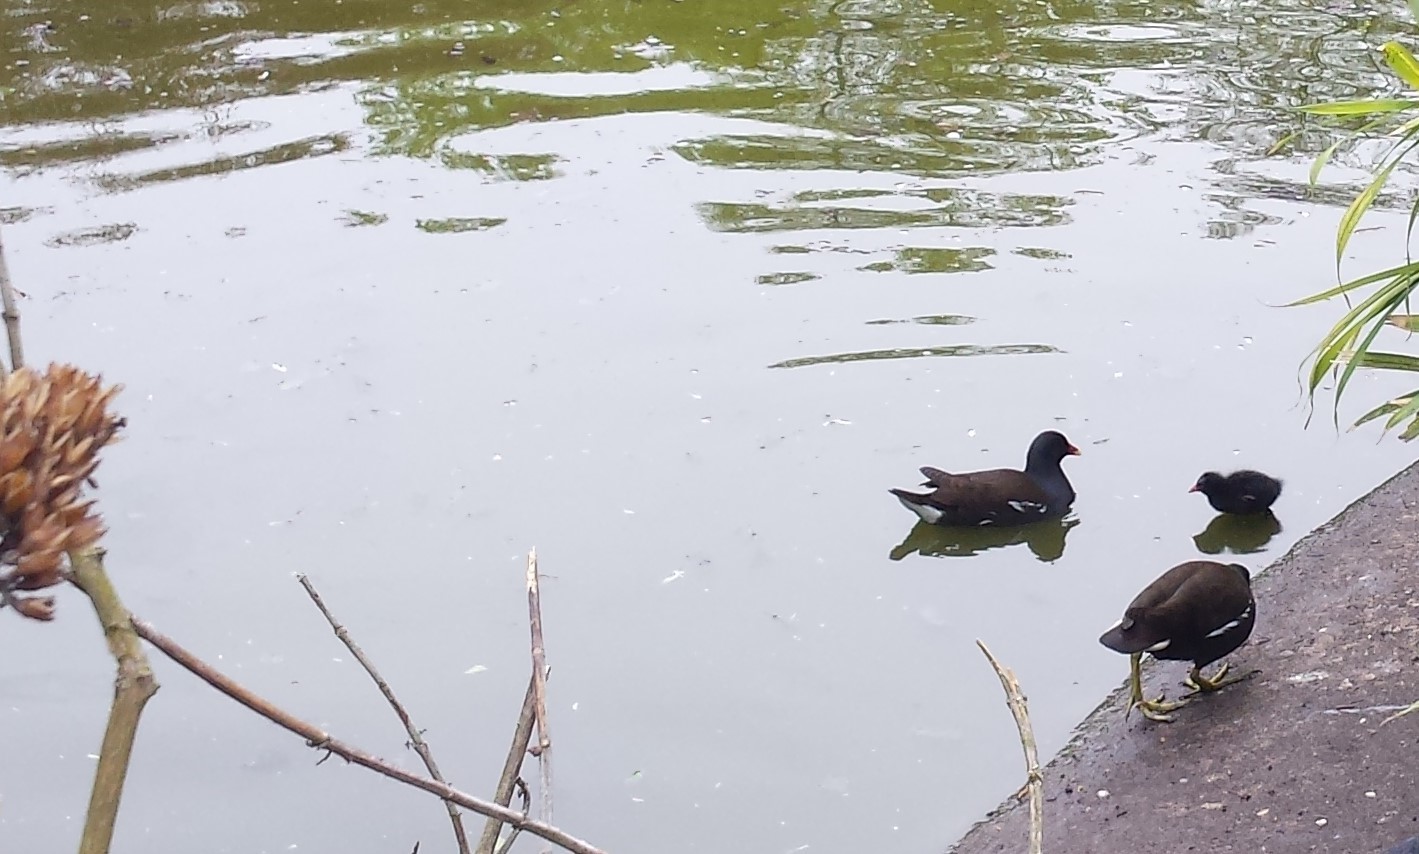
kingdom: Animalia
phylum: Chordata
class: Aves
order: Gruiformes
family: Rallidae
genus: Gallinula
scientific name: Gallinula chloropus
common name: Common moorhen
